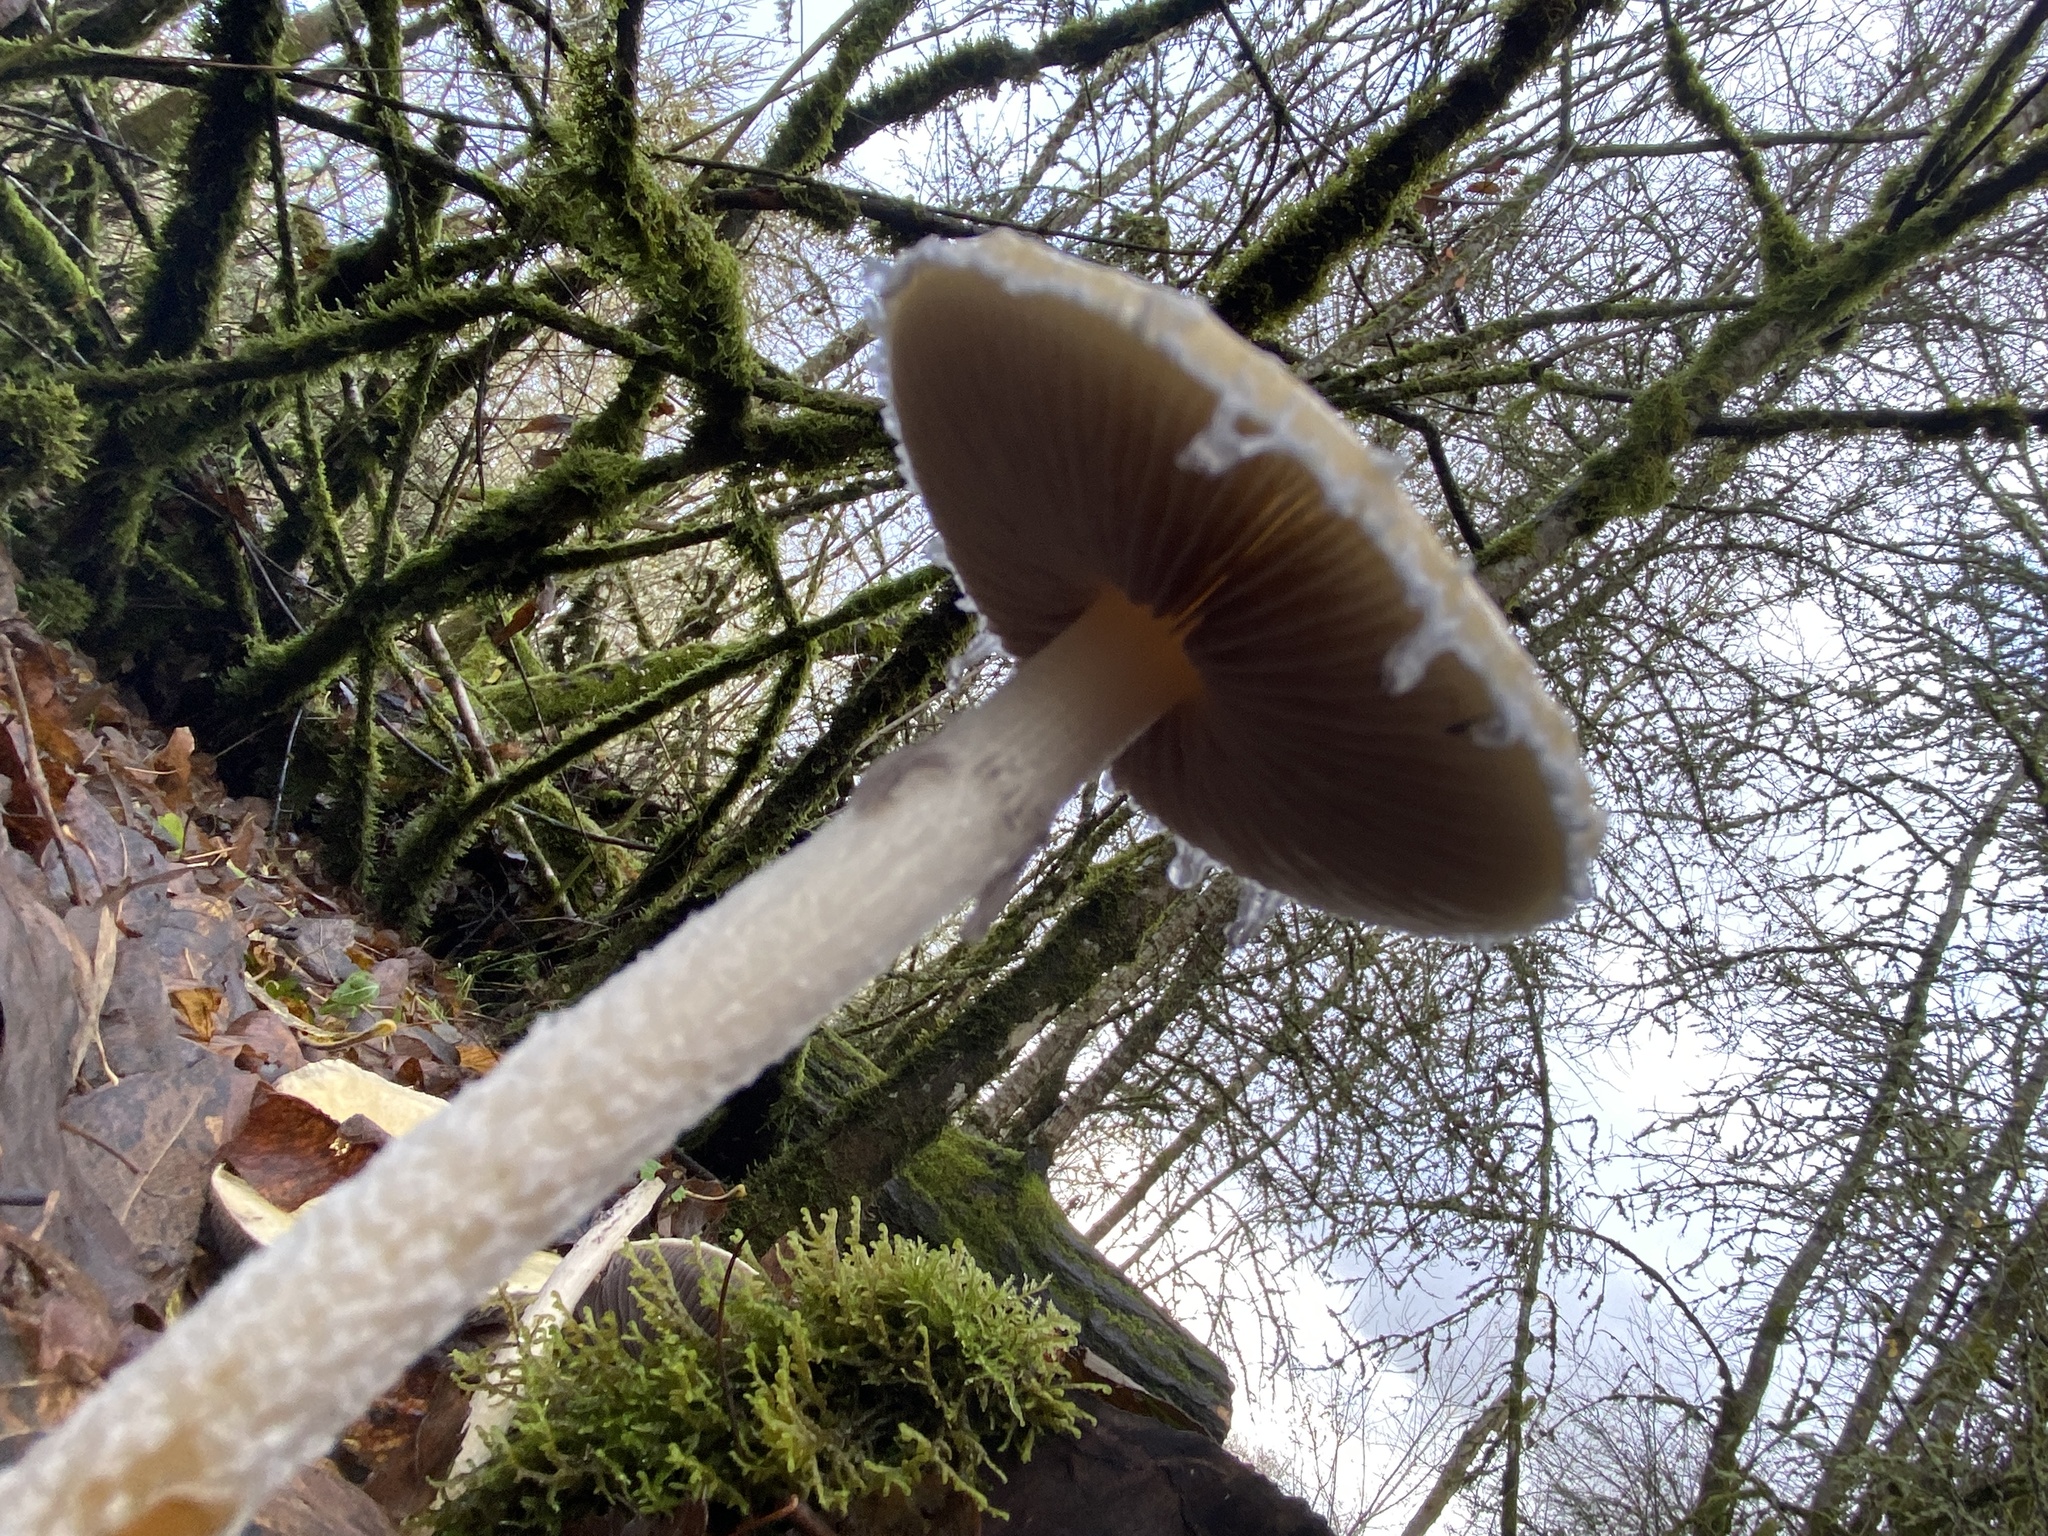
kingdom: Fungi
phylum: Basidiomycota
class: Agaricomycetes
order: Agaricales
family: Strophariaceae
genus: Stropharia
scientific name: Stropharia ambigua
